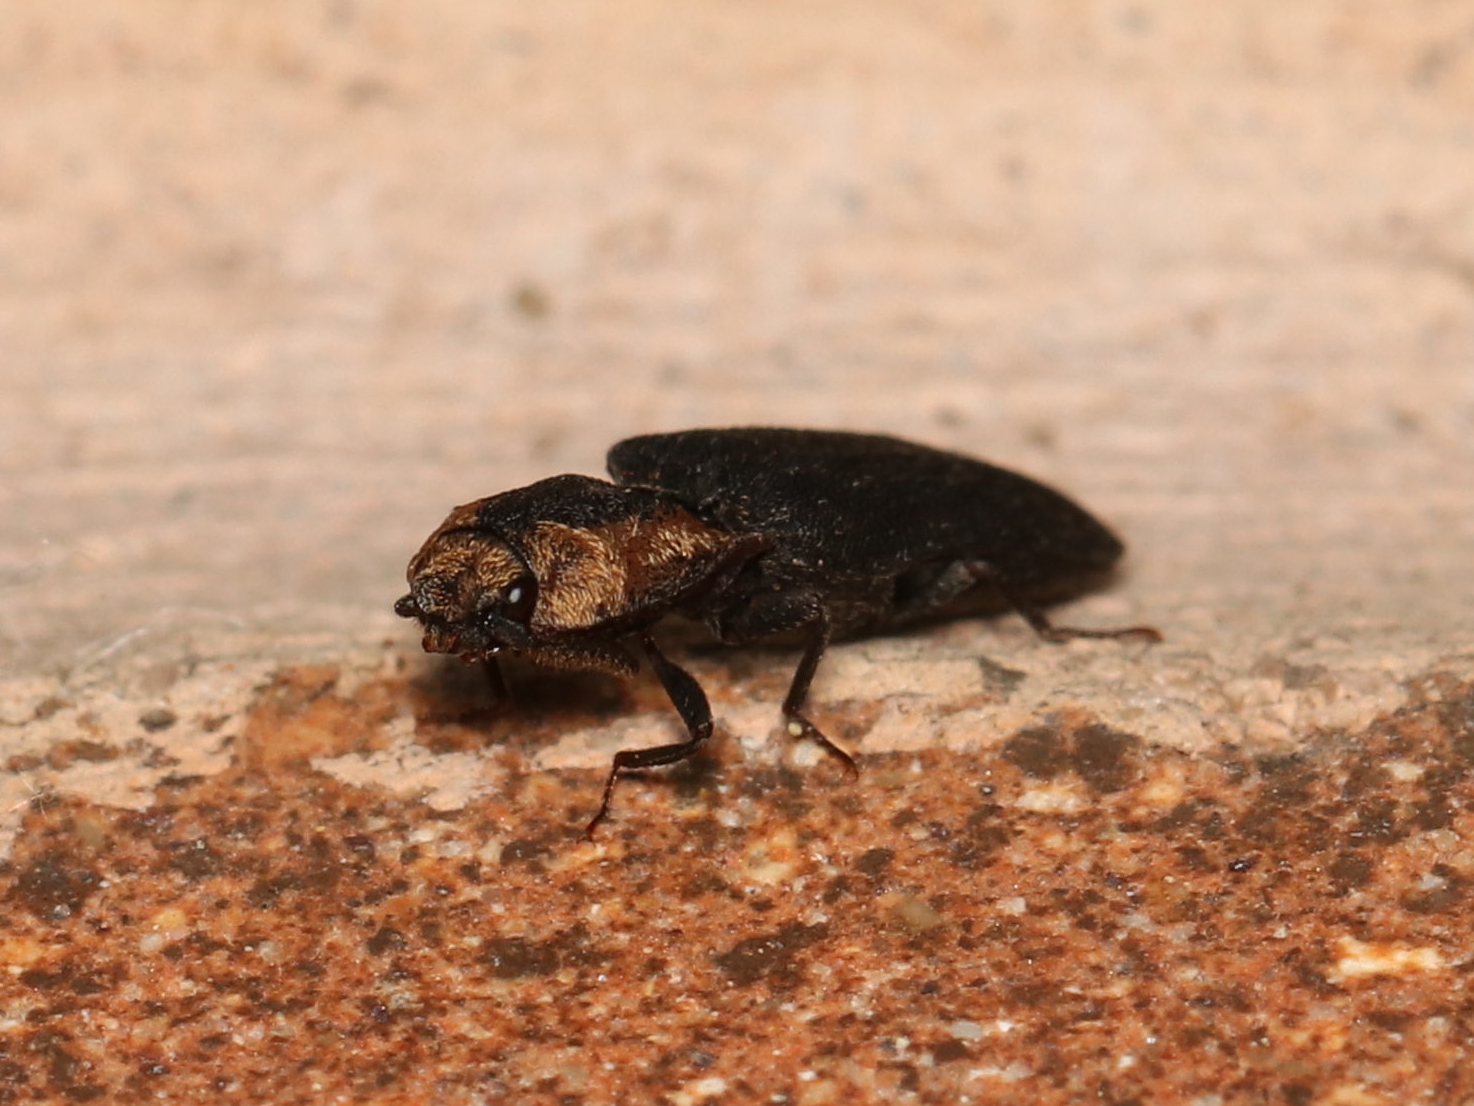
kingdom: Animalia
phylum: Arthropoda
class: Insecta
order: Coleoptera
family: Elateridae
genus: Lacon
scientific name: Lacon discoideus
